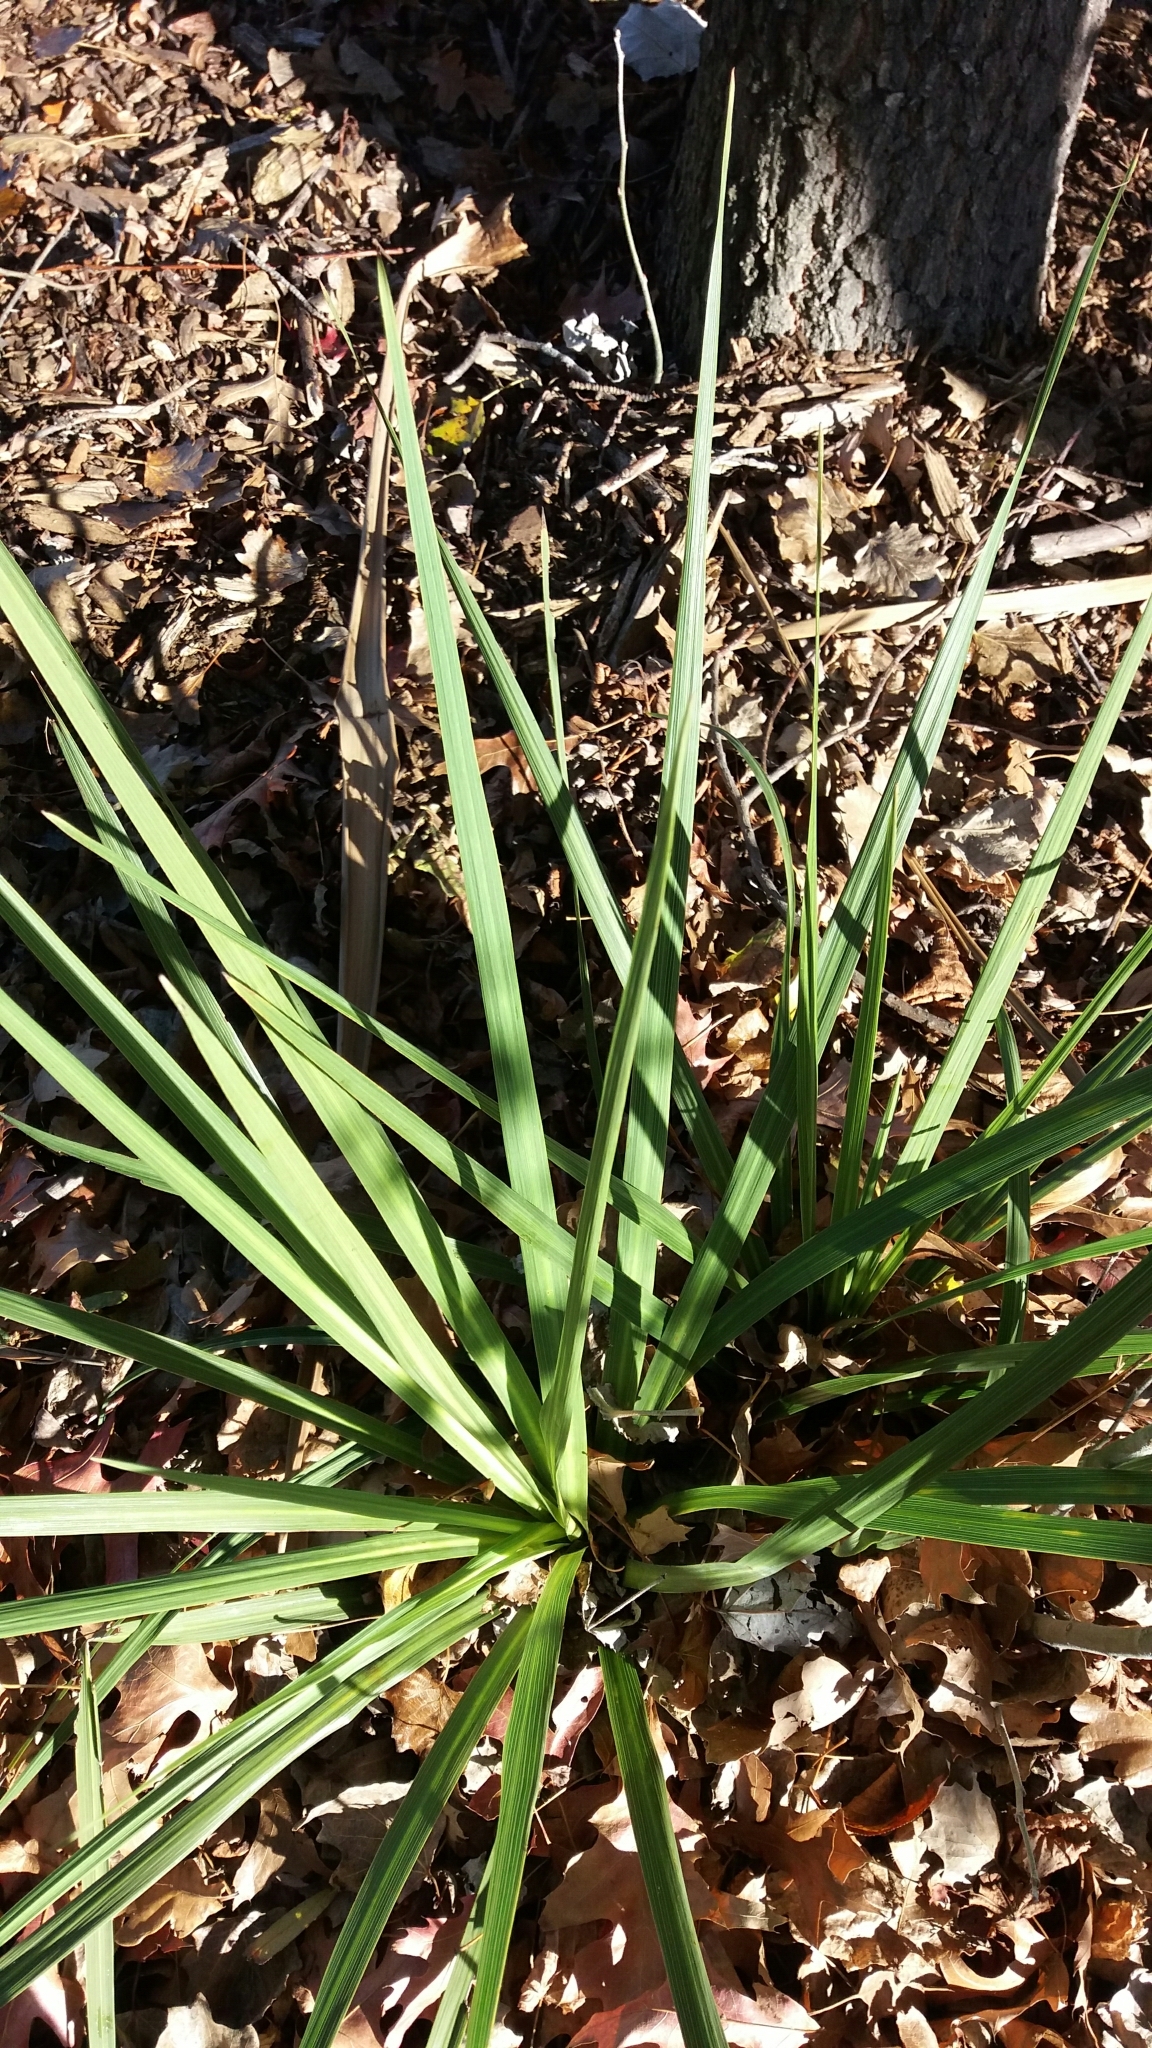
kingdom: Plantae
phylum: Tracheophyta
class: Liliopsida
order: Asparagales
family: Asparagaceae
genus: Cordyline
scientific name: Cordyline australis
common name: Cabbage-palm
